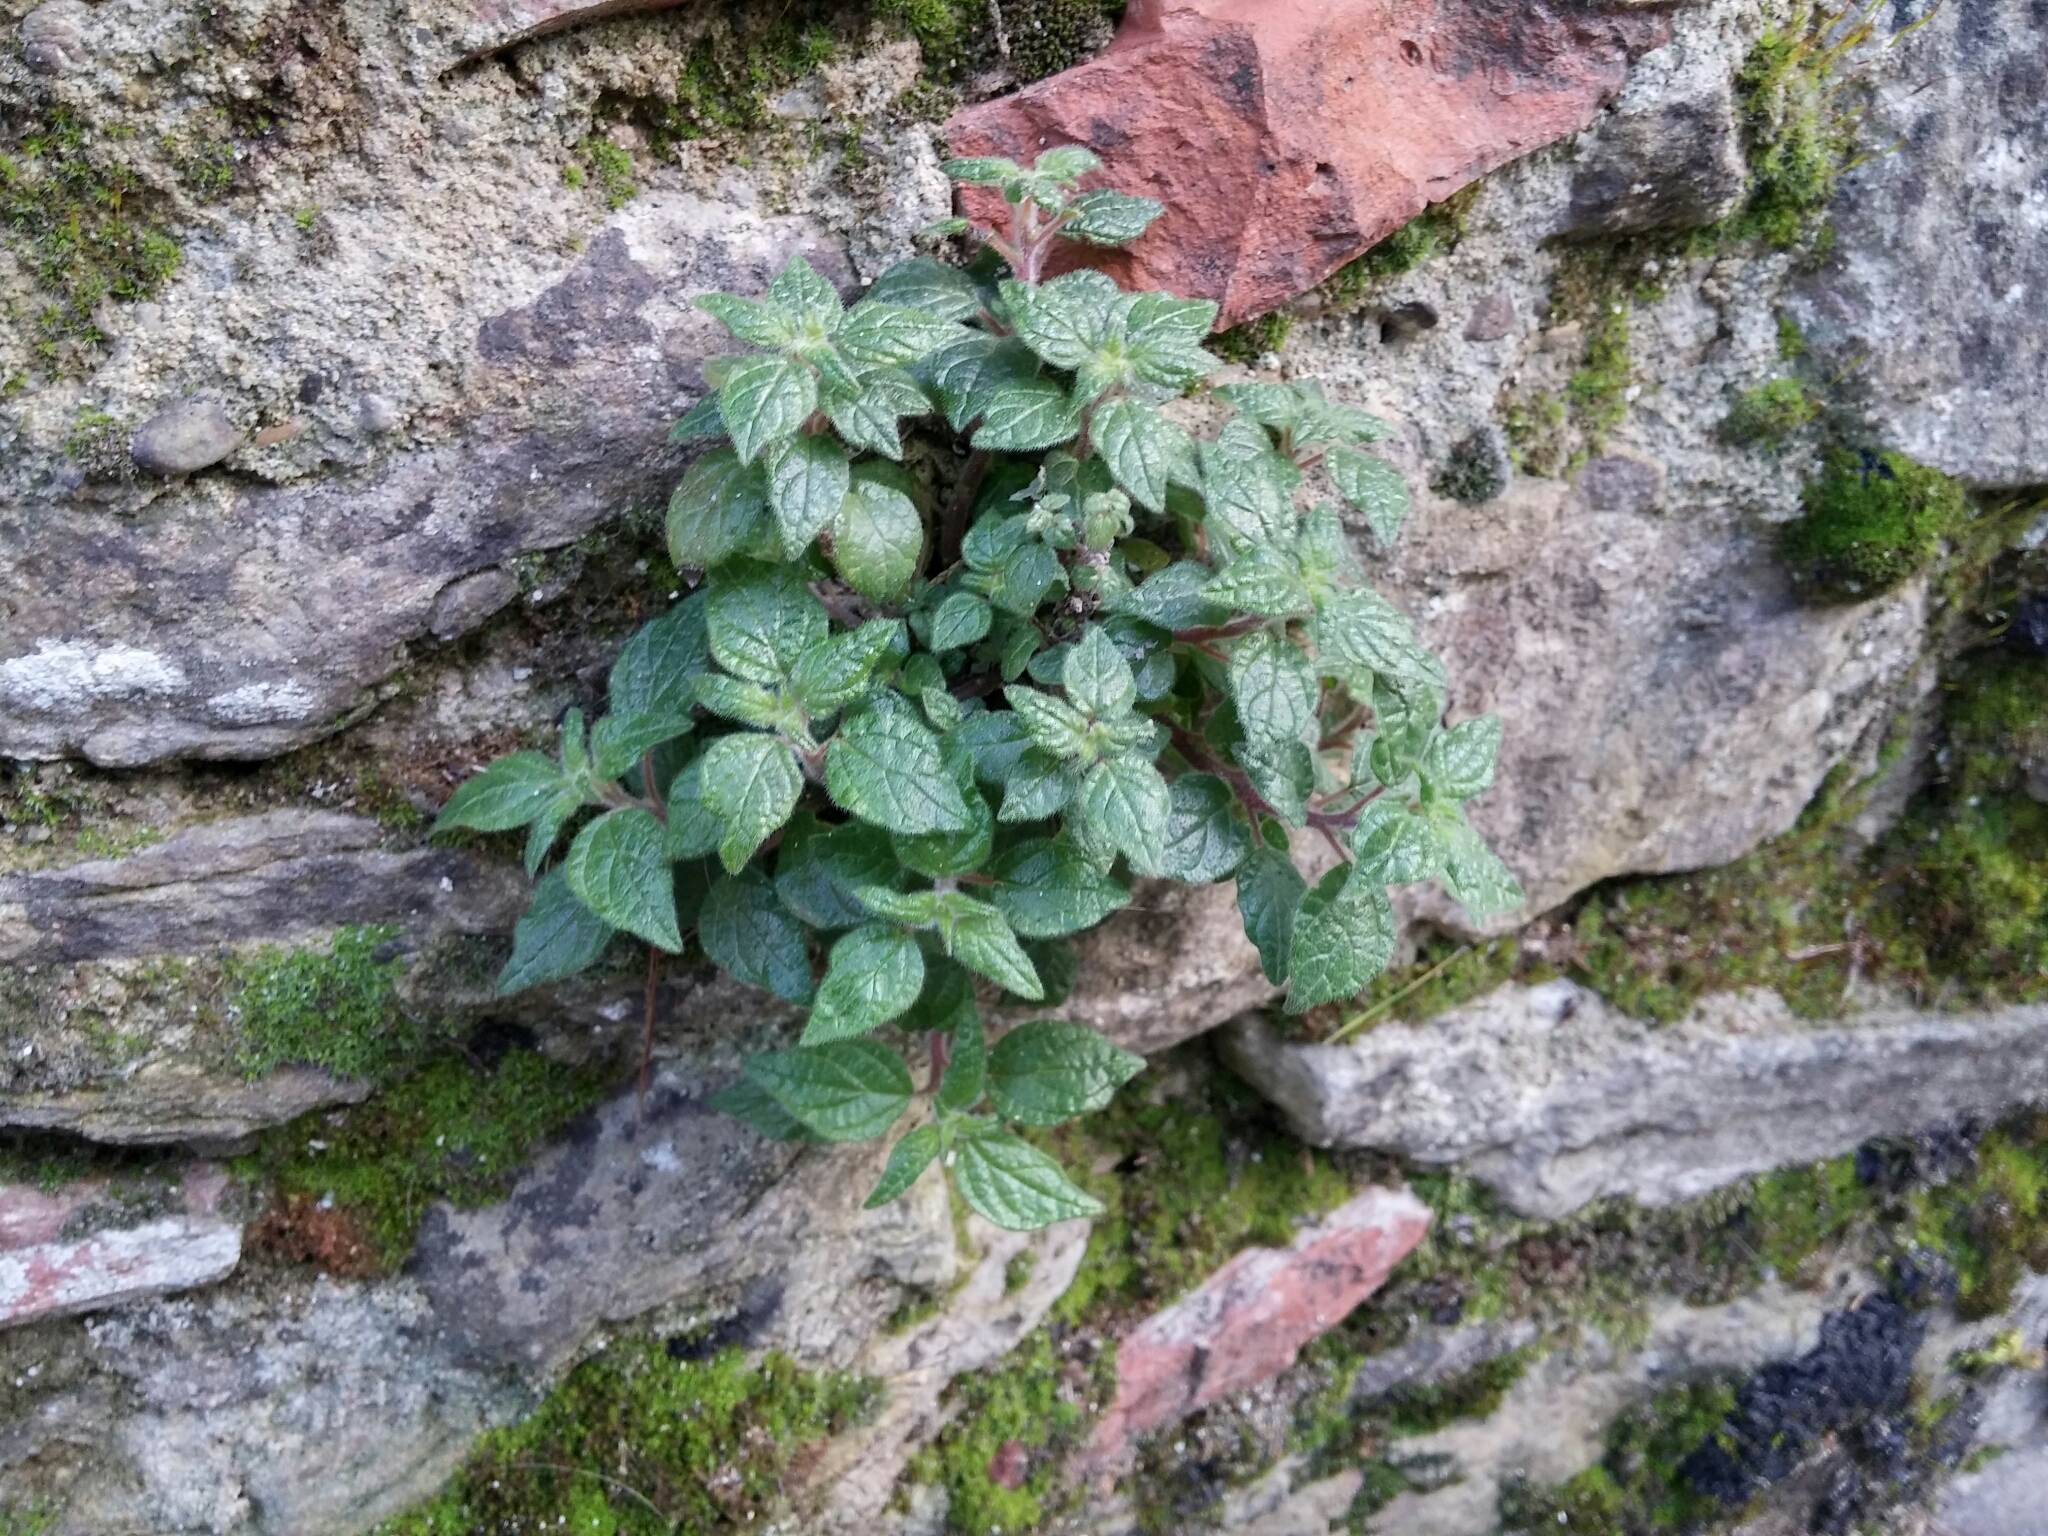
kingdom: Plantae
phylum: Tracheophyta
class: Magnoliopsida
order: Rosales
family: Urticaceae
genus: Parietaria
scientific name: Parietaria judaica
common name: Pellitory-of-the-wall
